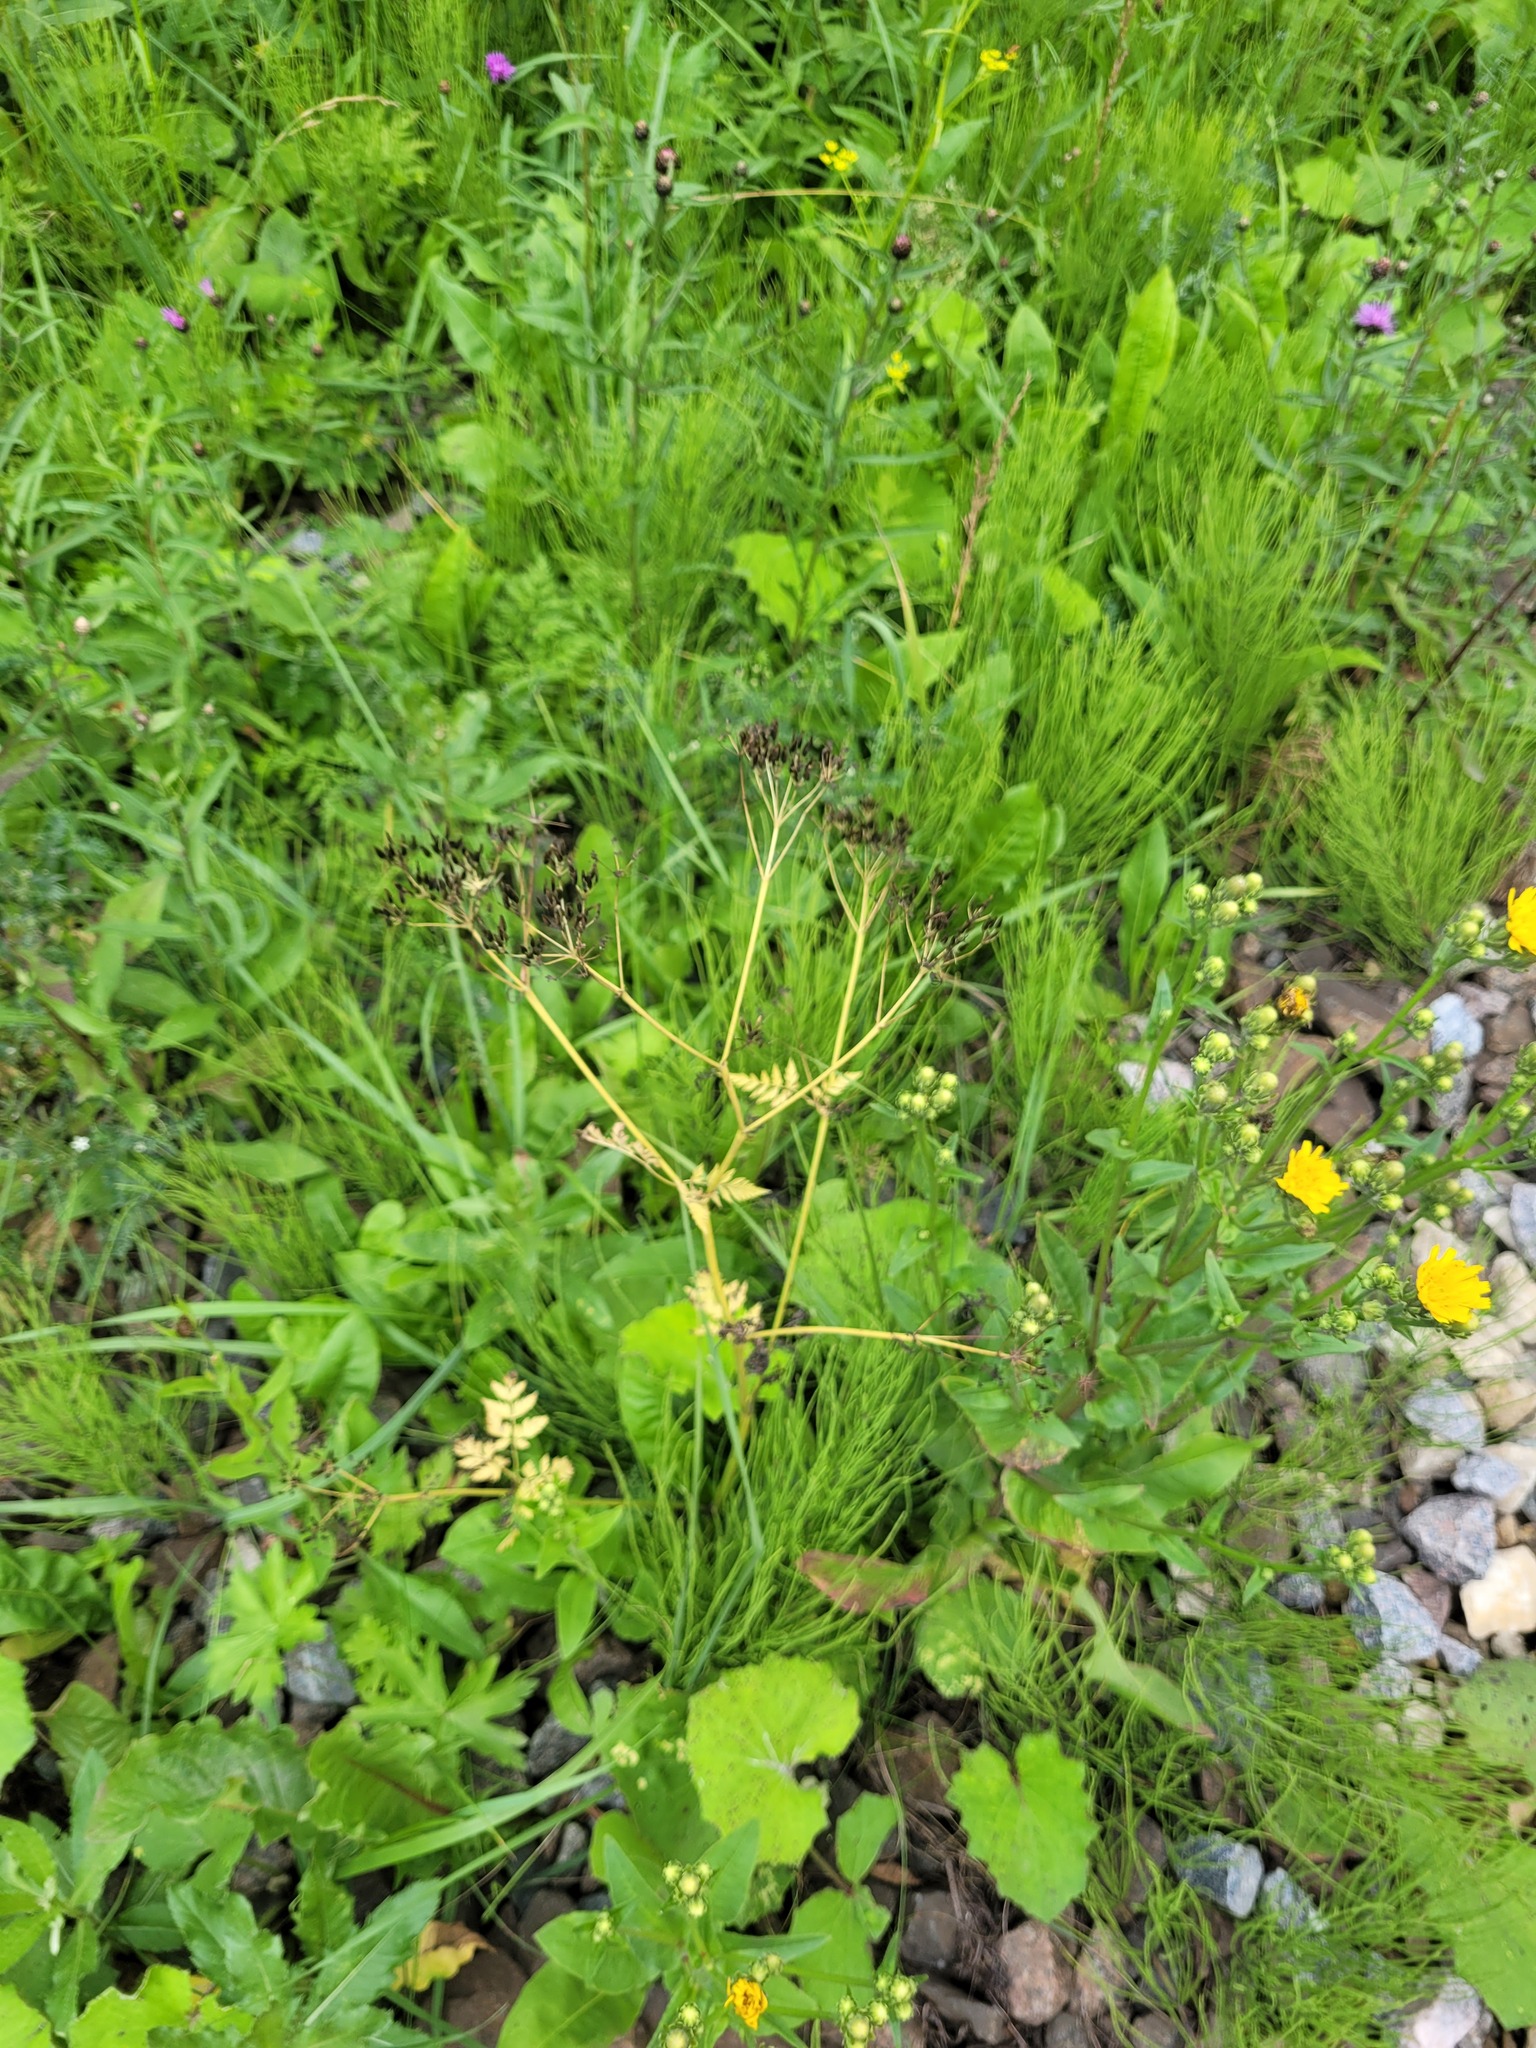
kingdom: Plantae
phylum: Tracheophyta
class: Magnoliopsida
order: Apiales
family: Apiaceae
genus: Anthriscus
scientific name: Anthriscus sylvestris
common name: Cow parsley
